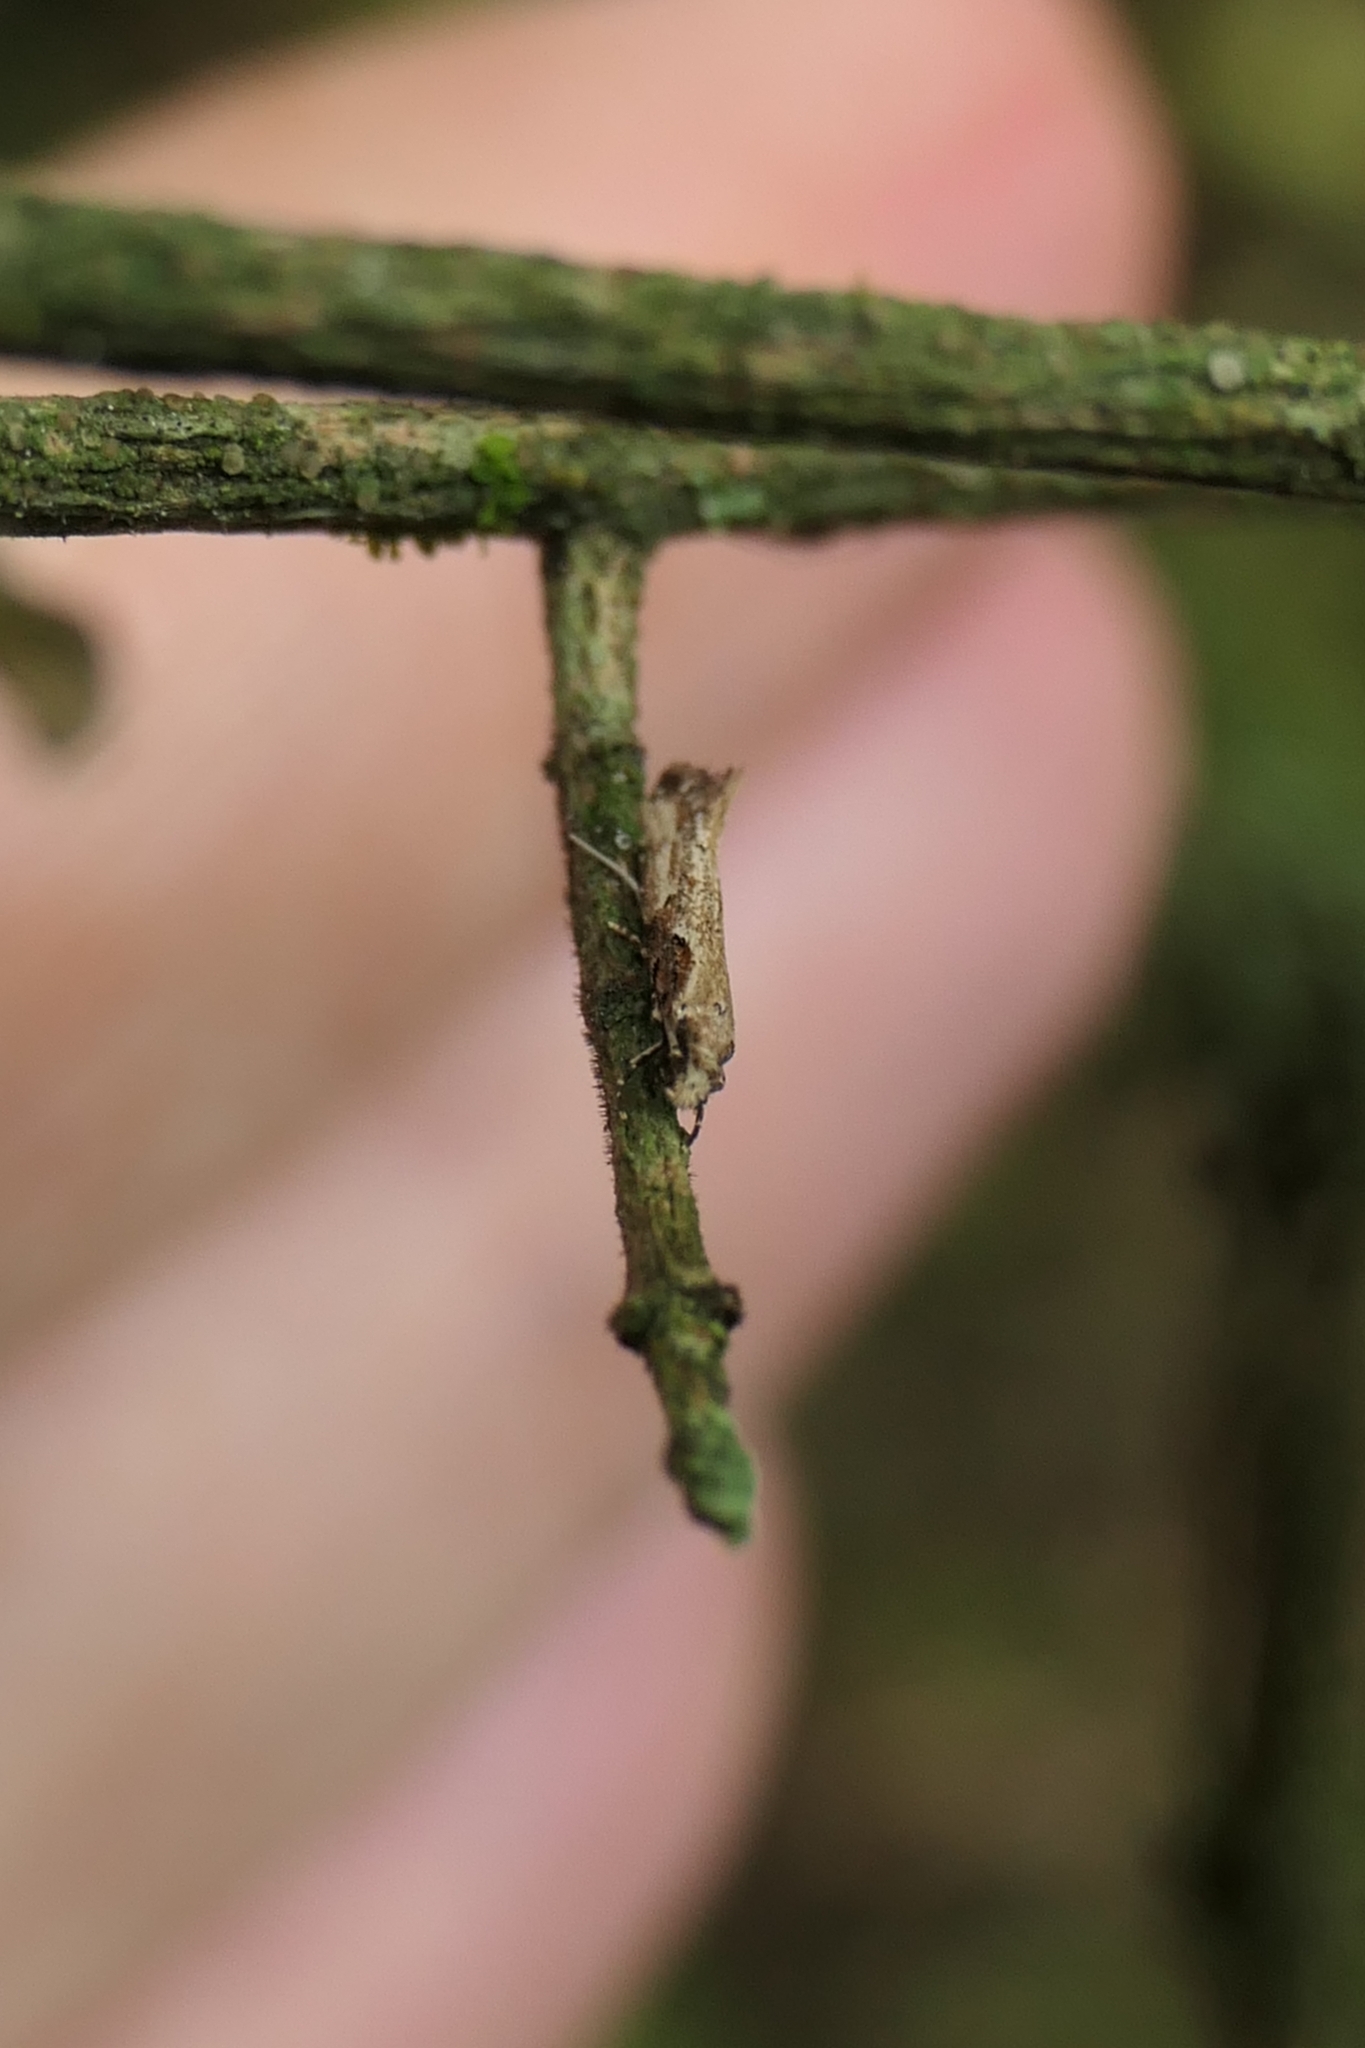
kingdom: Animalia
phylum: Arthropoda
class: Insecta
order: Lepidoptera
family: Tineidae
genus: Crypsitricha
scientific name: Crypsitricha pharotoma
